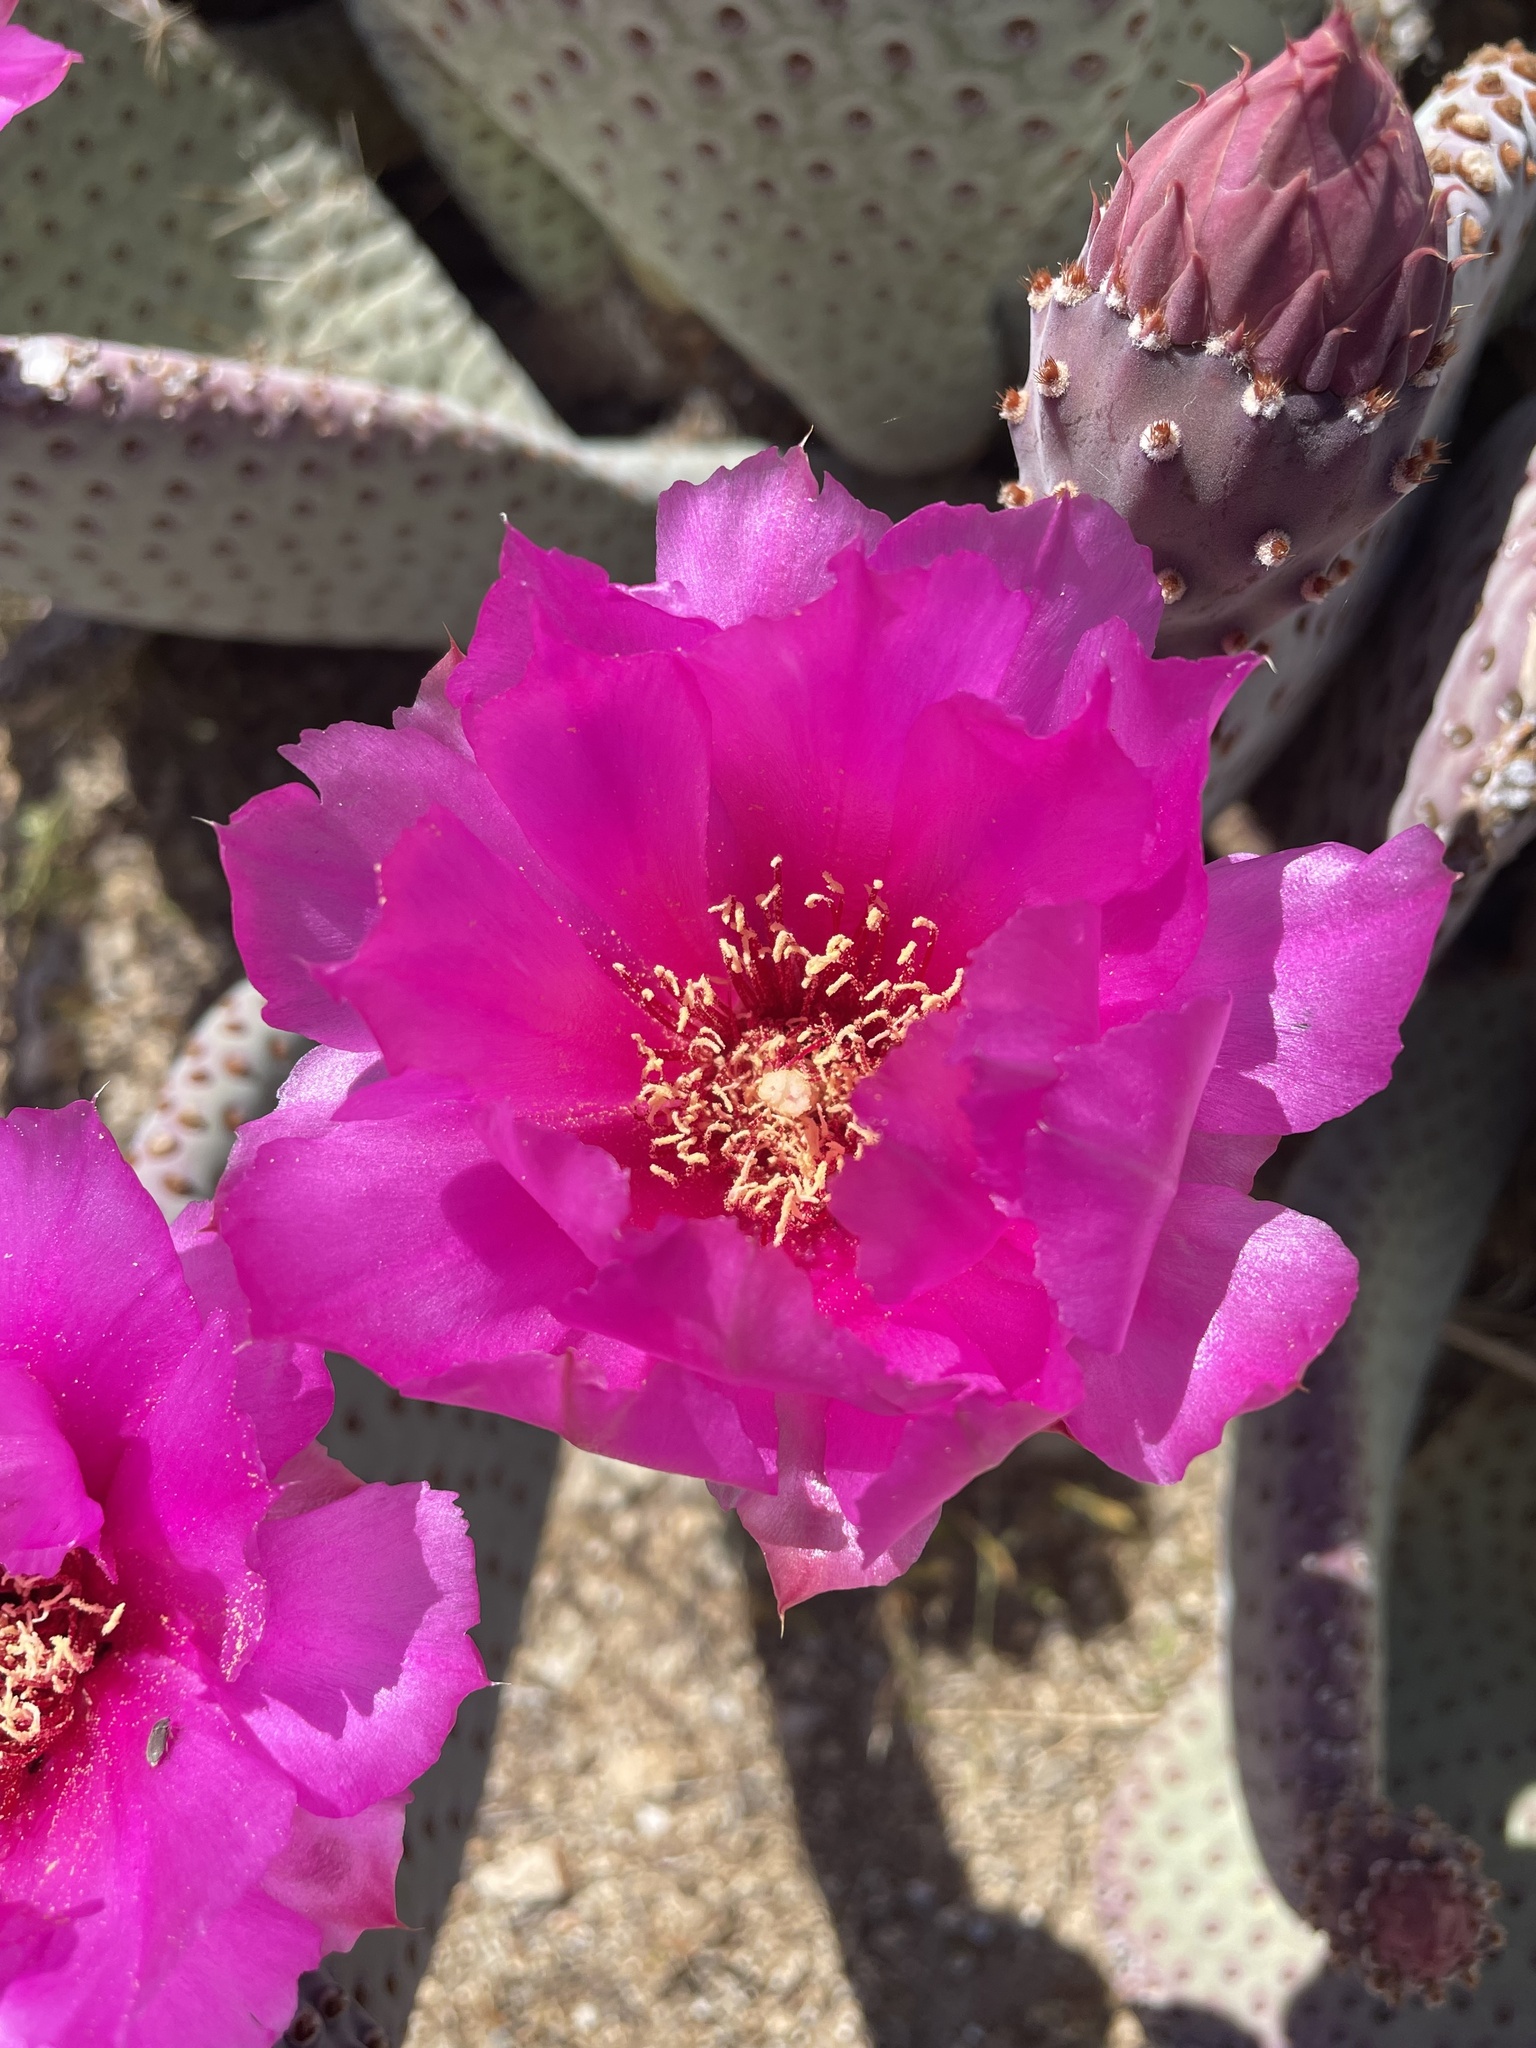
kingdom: Plantae
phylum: Tracheophyta
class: Magnoliopsida
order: Caryophyllales
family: Cactaceae
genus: Opuntia
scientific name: Opuntia basilaris
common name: Beavertail prickly-pear
